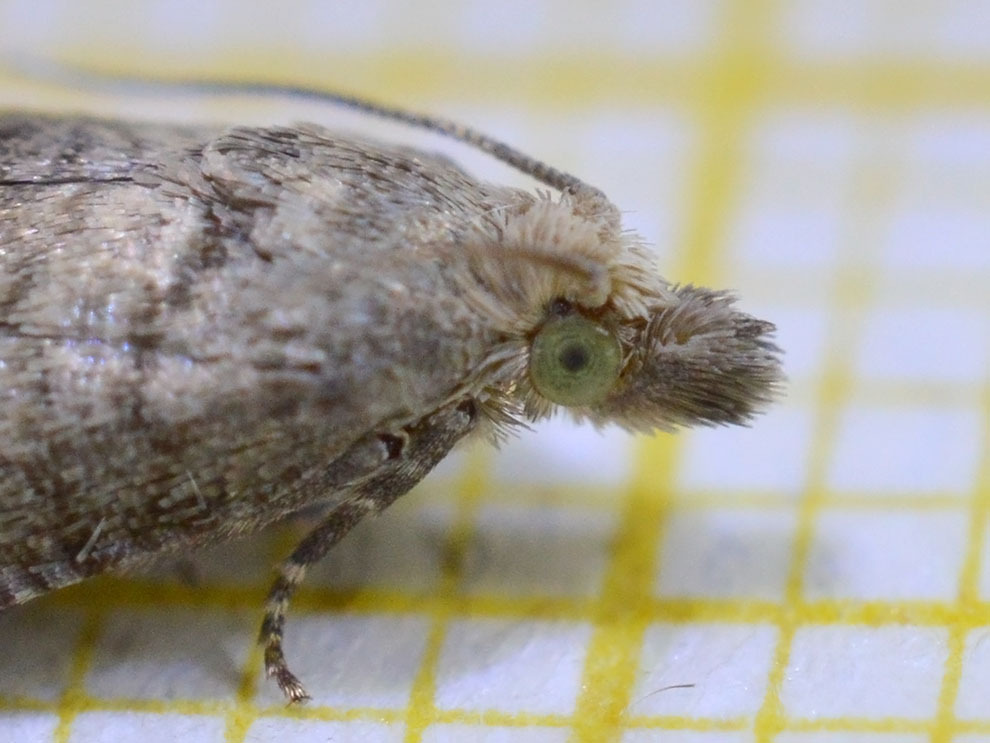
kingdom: Animalia
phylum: Arthropoda
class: Insecta
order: Lepidoptera
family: Tortricidae
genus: Notocelia
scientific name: Notocelia uddmanniana
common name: Bramble shoot moth
